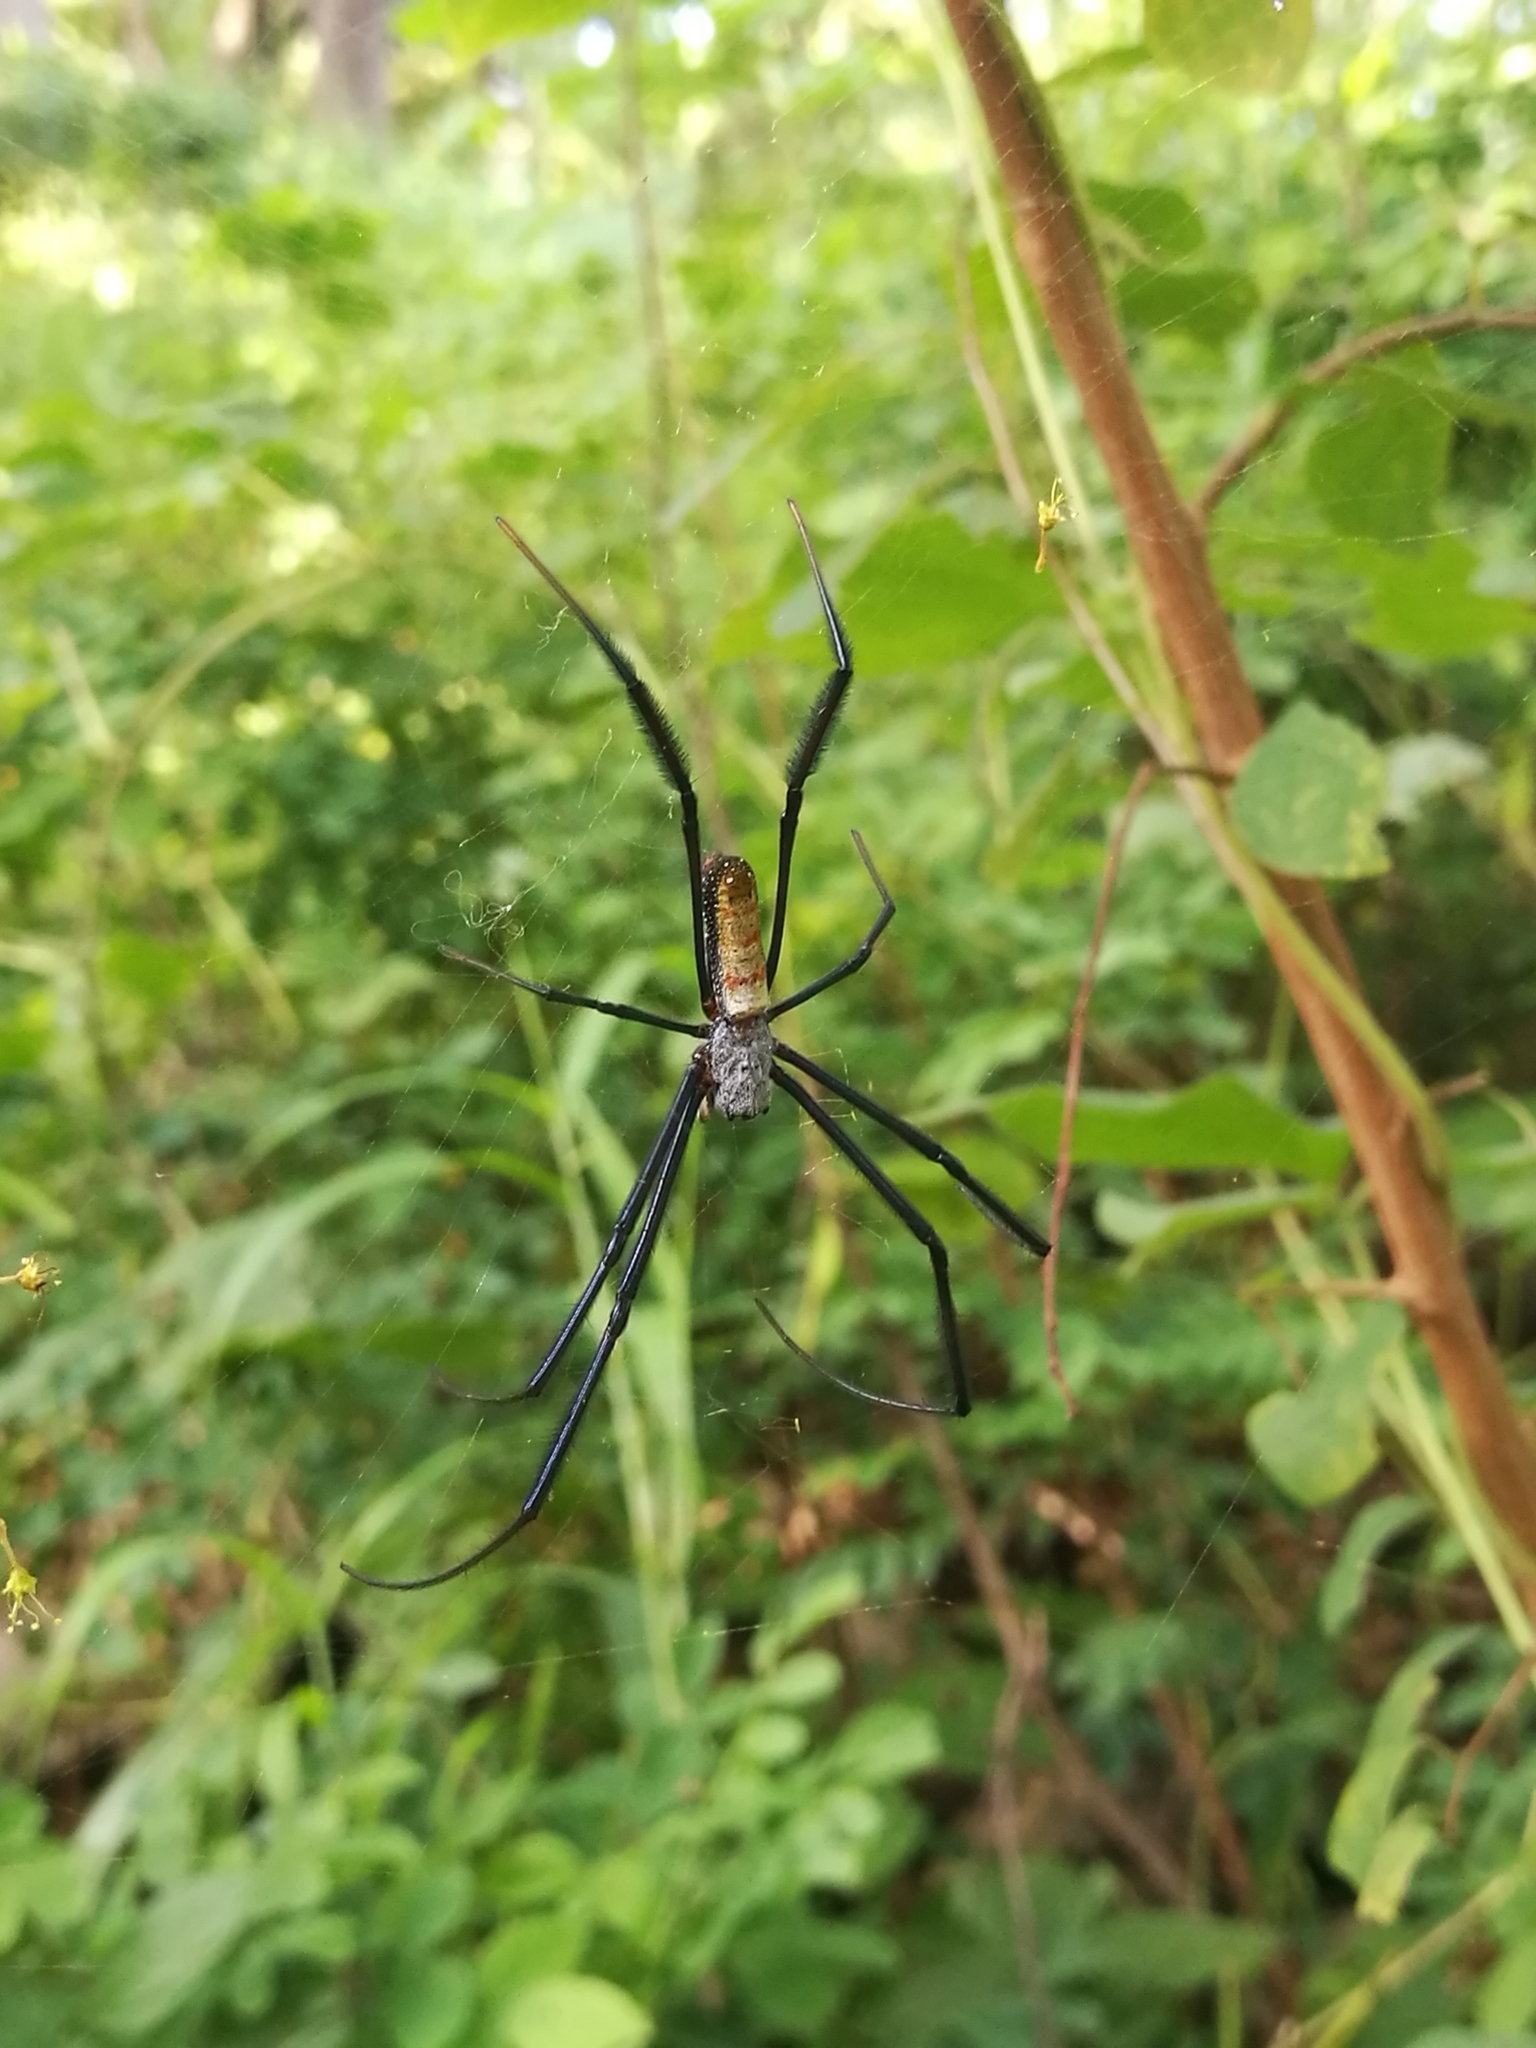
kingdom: Animalia
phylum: Arthropoda
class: Arachnida
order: Araneae
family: Araneidae
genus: Trichonephila
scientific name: Trichonephila fenestrata
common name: Hairy golden orb weaver
